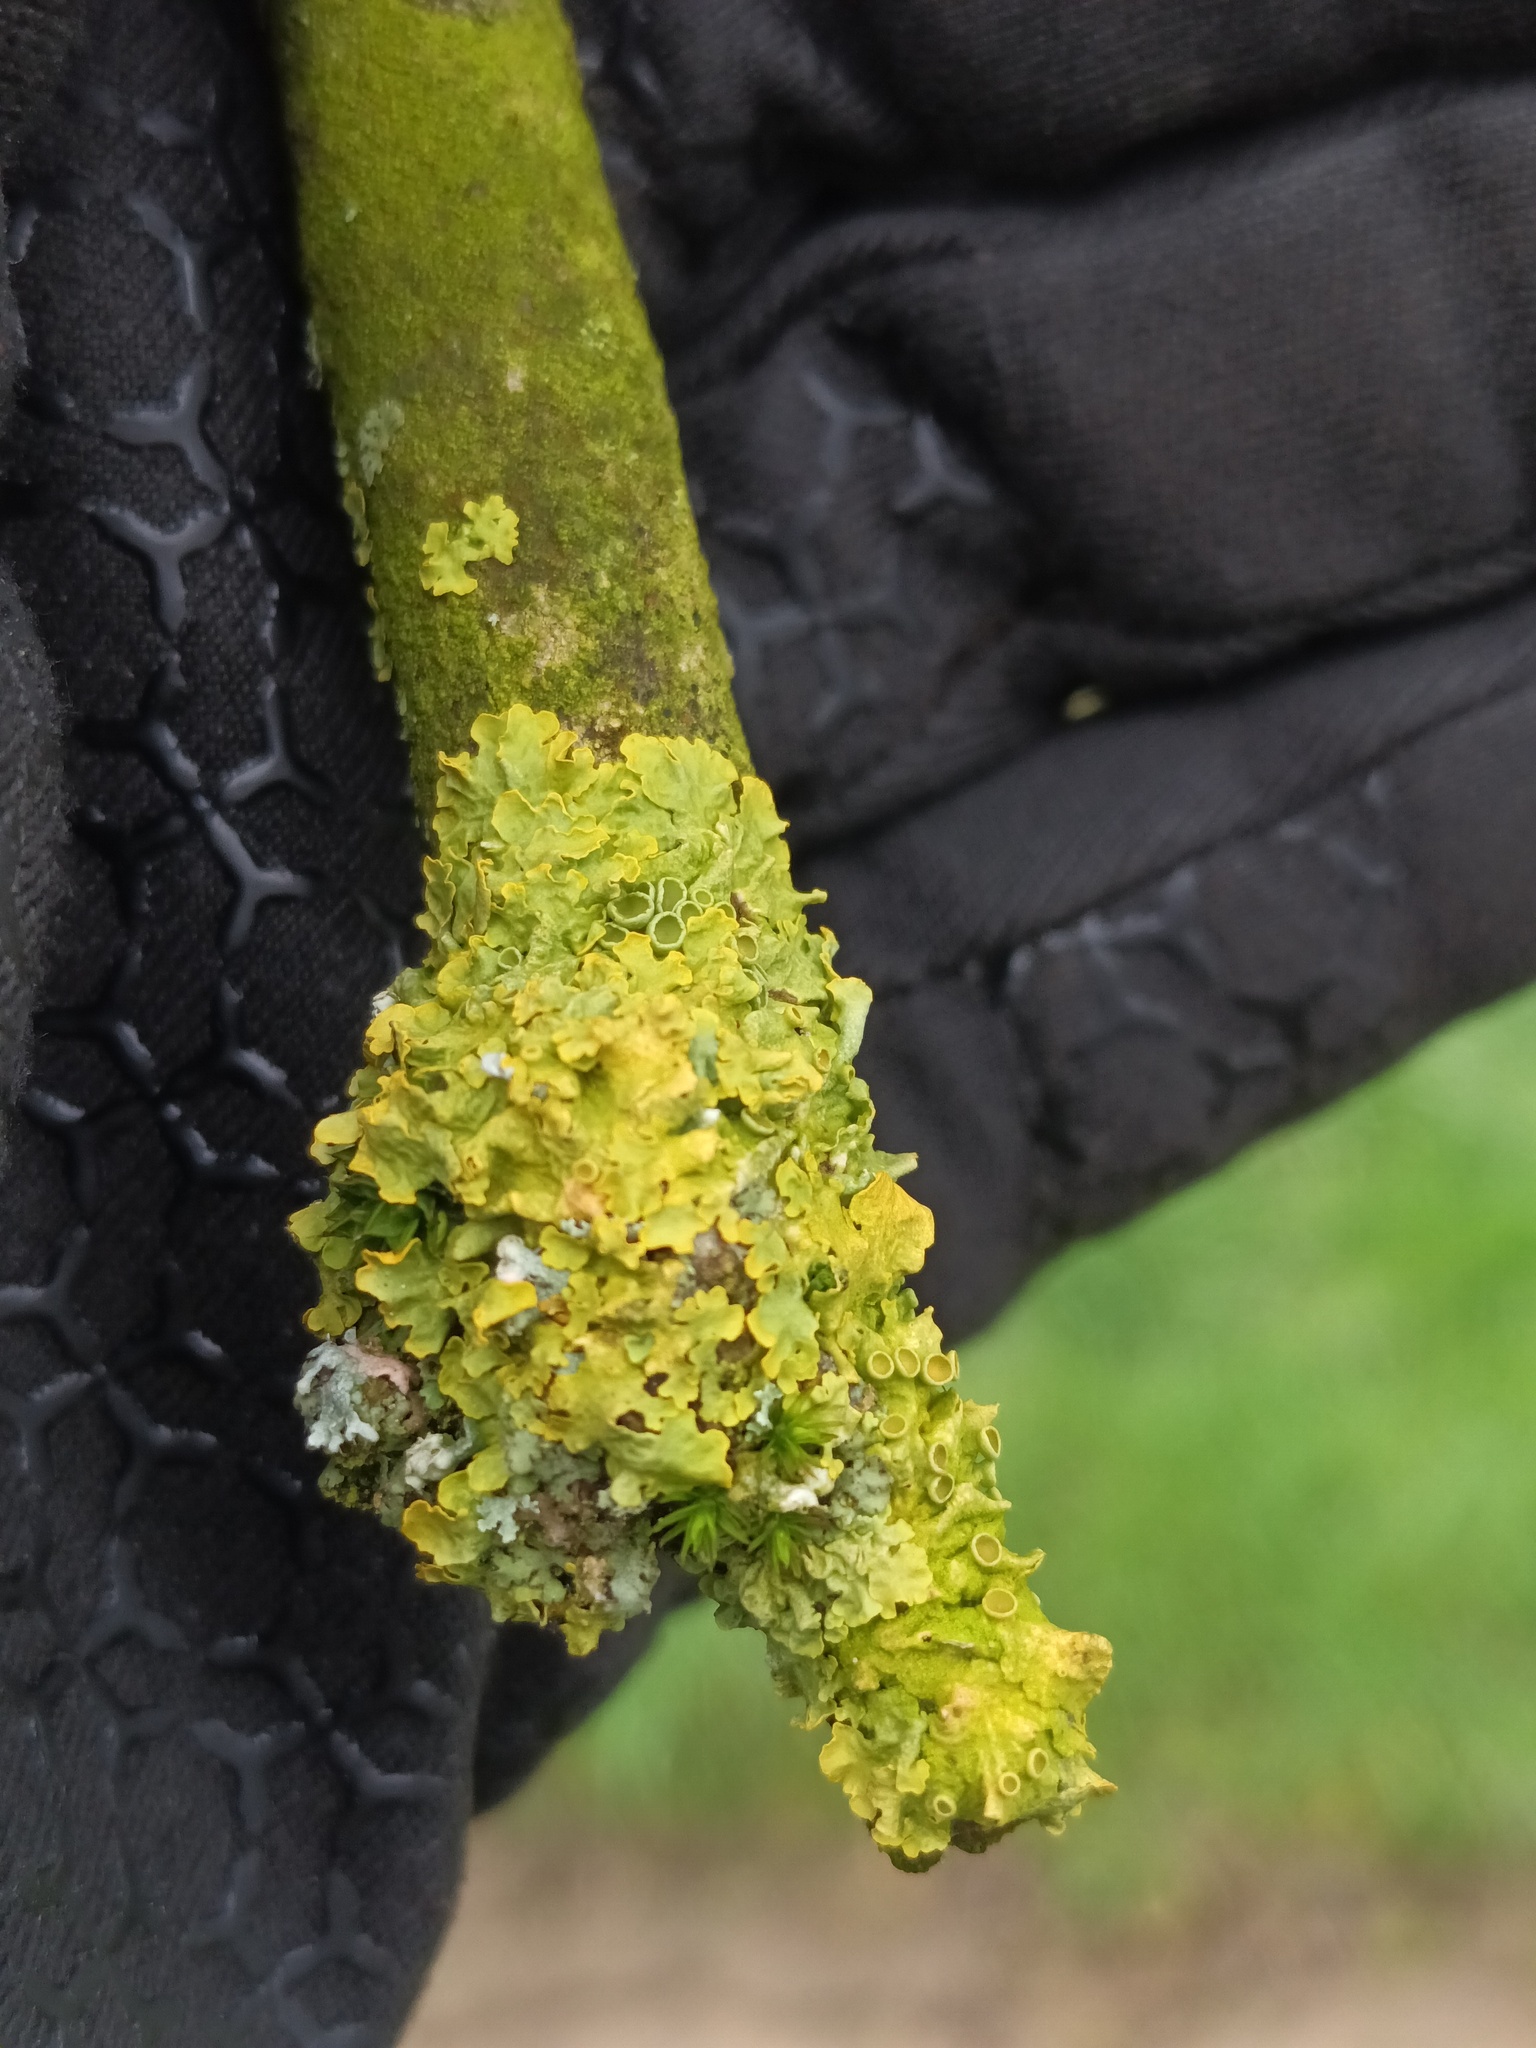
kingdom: Fungi
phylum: Ascomycota
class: Lecanoromycetes
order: Teloschistales
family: Teloschistaceae
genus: Xanthoria
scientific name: Xanthoria parietina
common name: Common orange lichen
